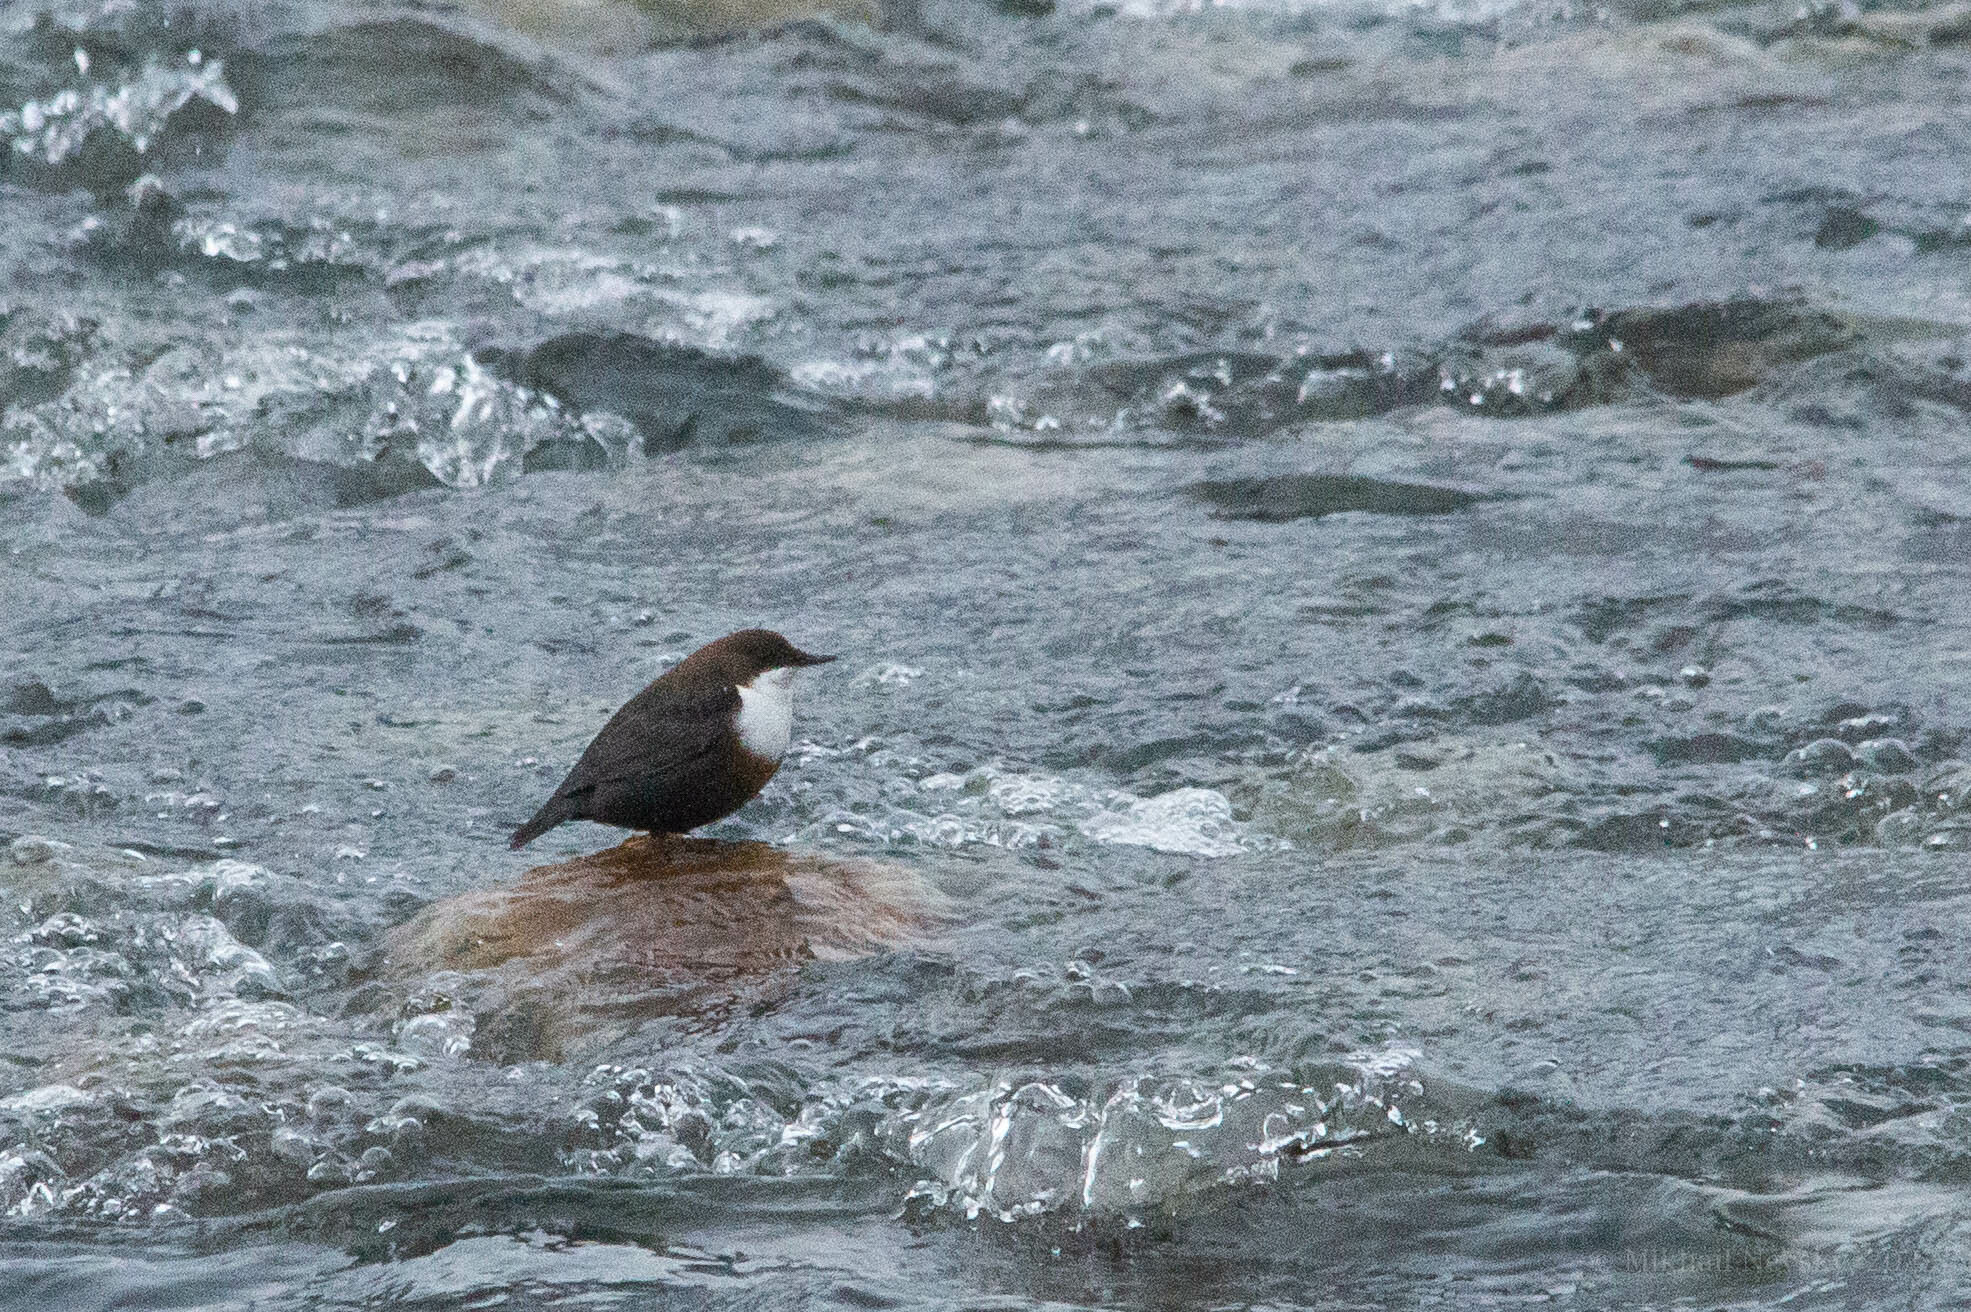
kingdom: Animalia
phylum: Chordata
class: Aves
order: Passeriformes
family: Cinclidae
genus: Cinclus
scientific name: Cinclus cinclus
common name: White-throated dipper
